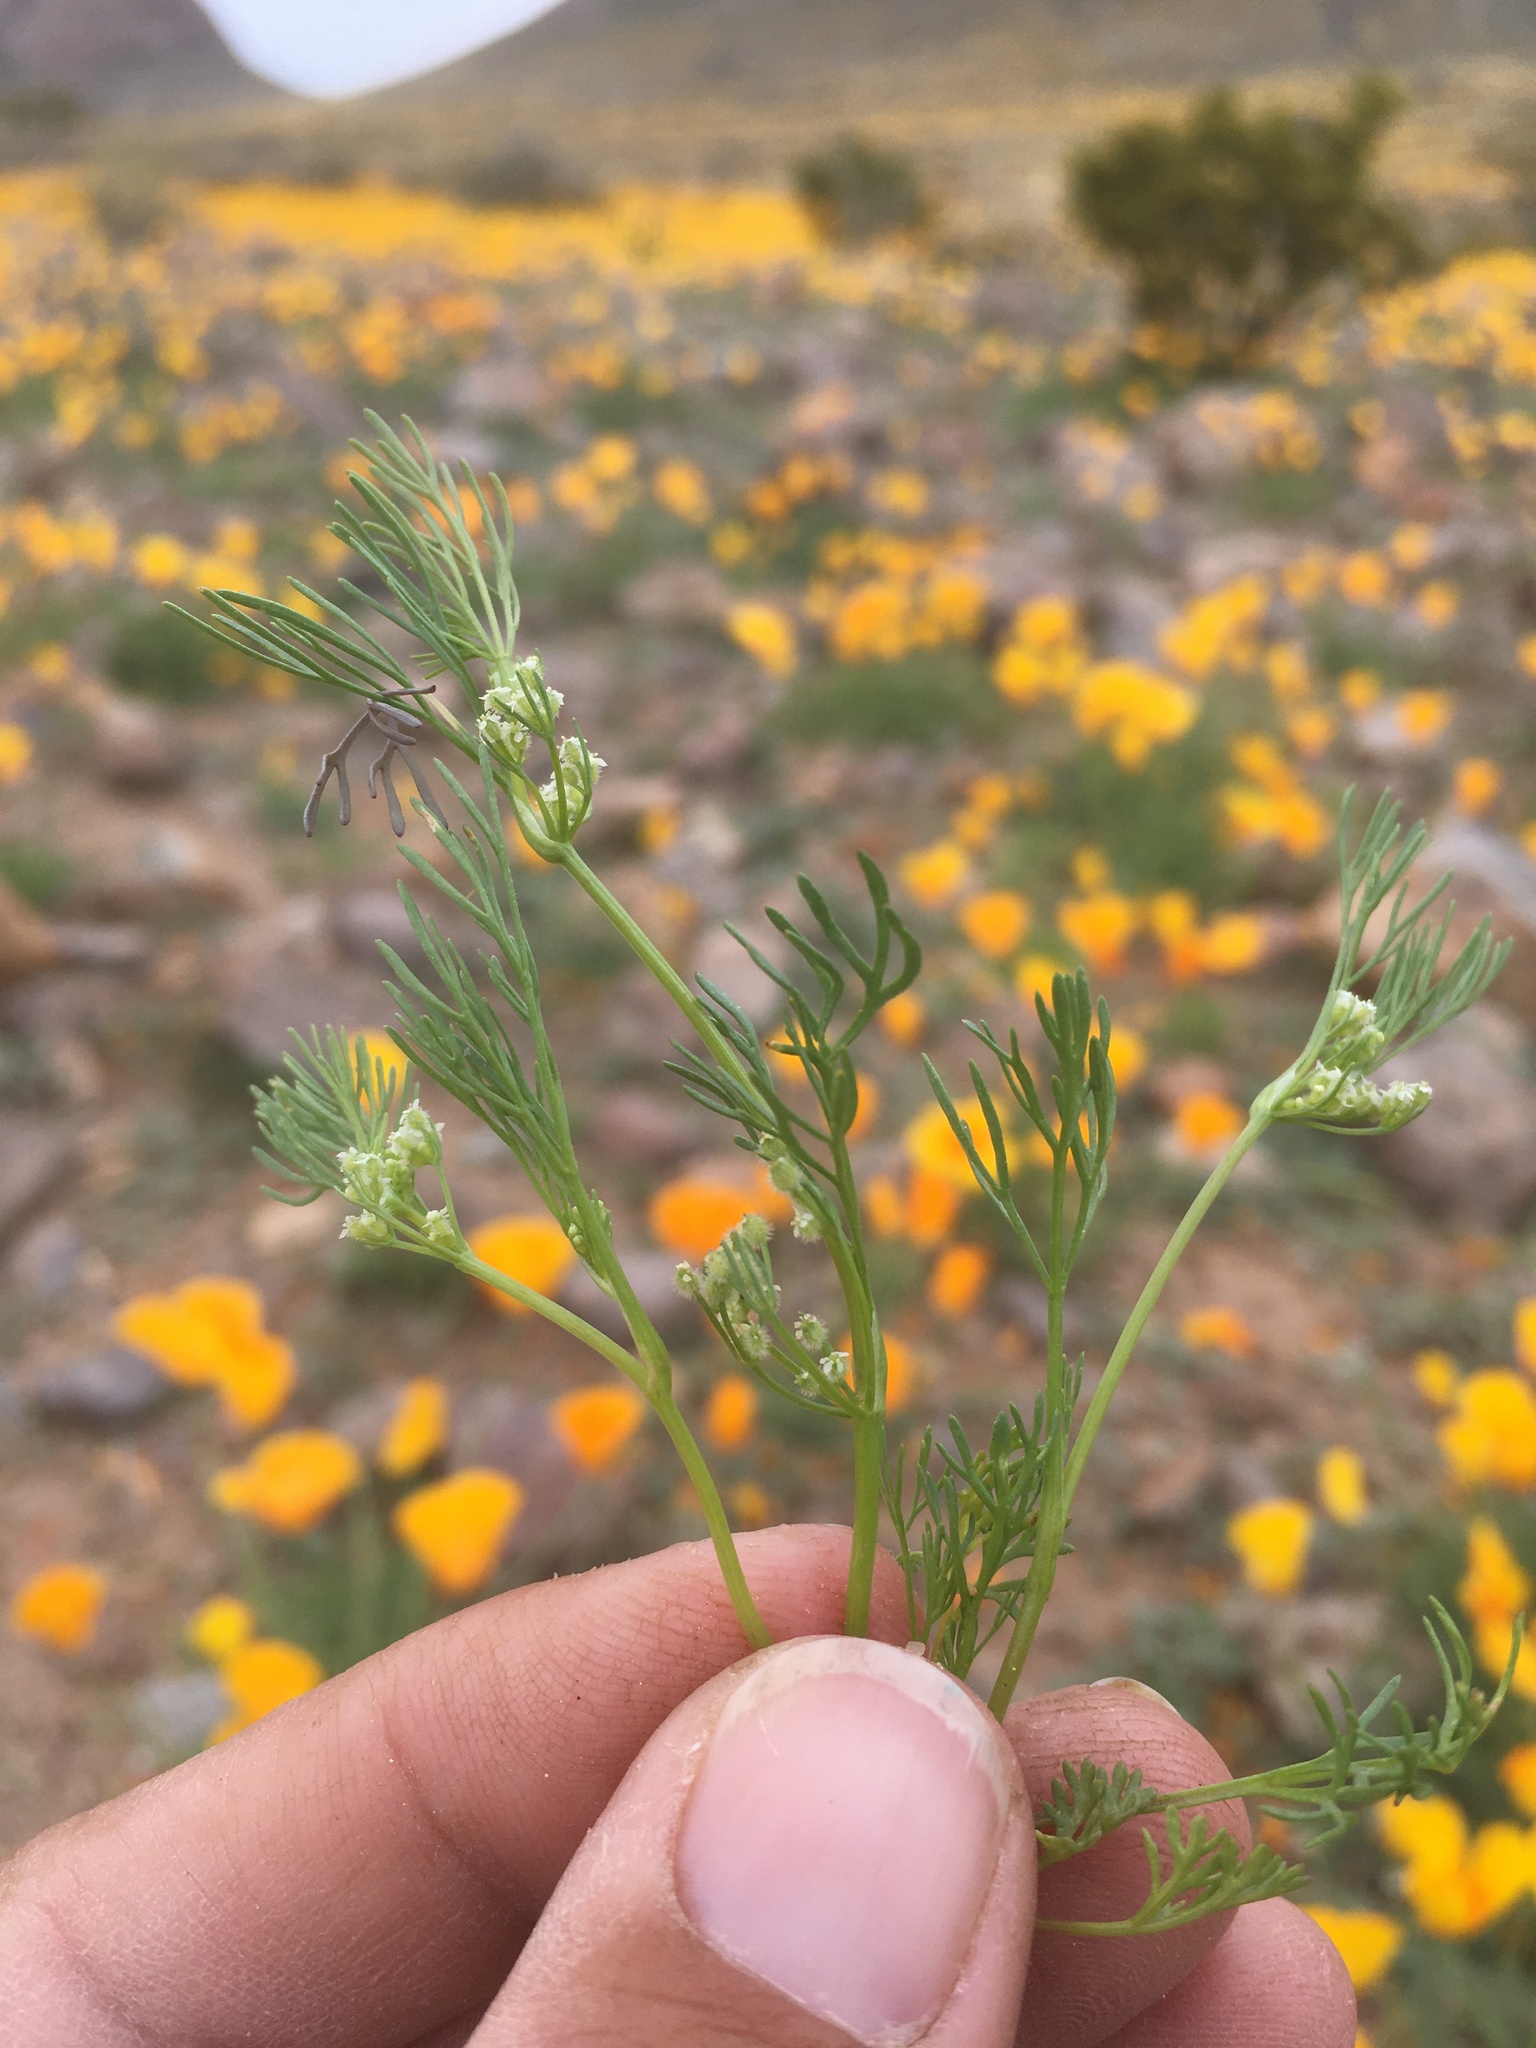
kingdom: Plantae
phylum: Tracheophyta
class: Magnoliopsida
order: Apiales
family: Apiaceae
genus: Spermolepis
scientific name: Spermolepis lateriflora
